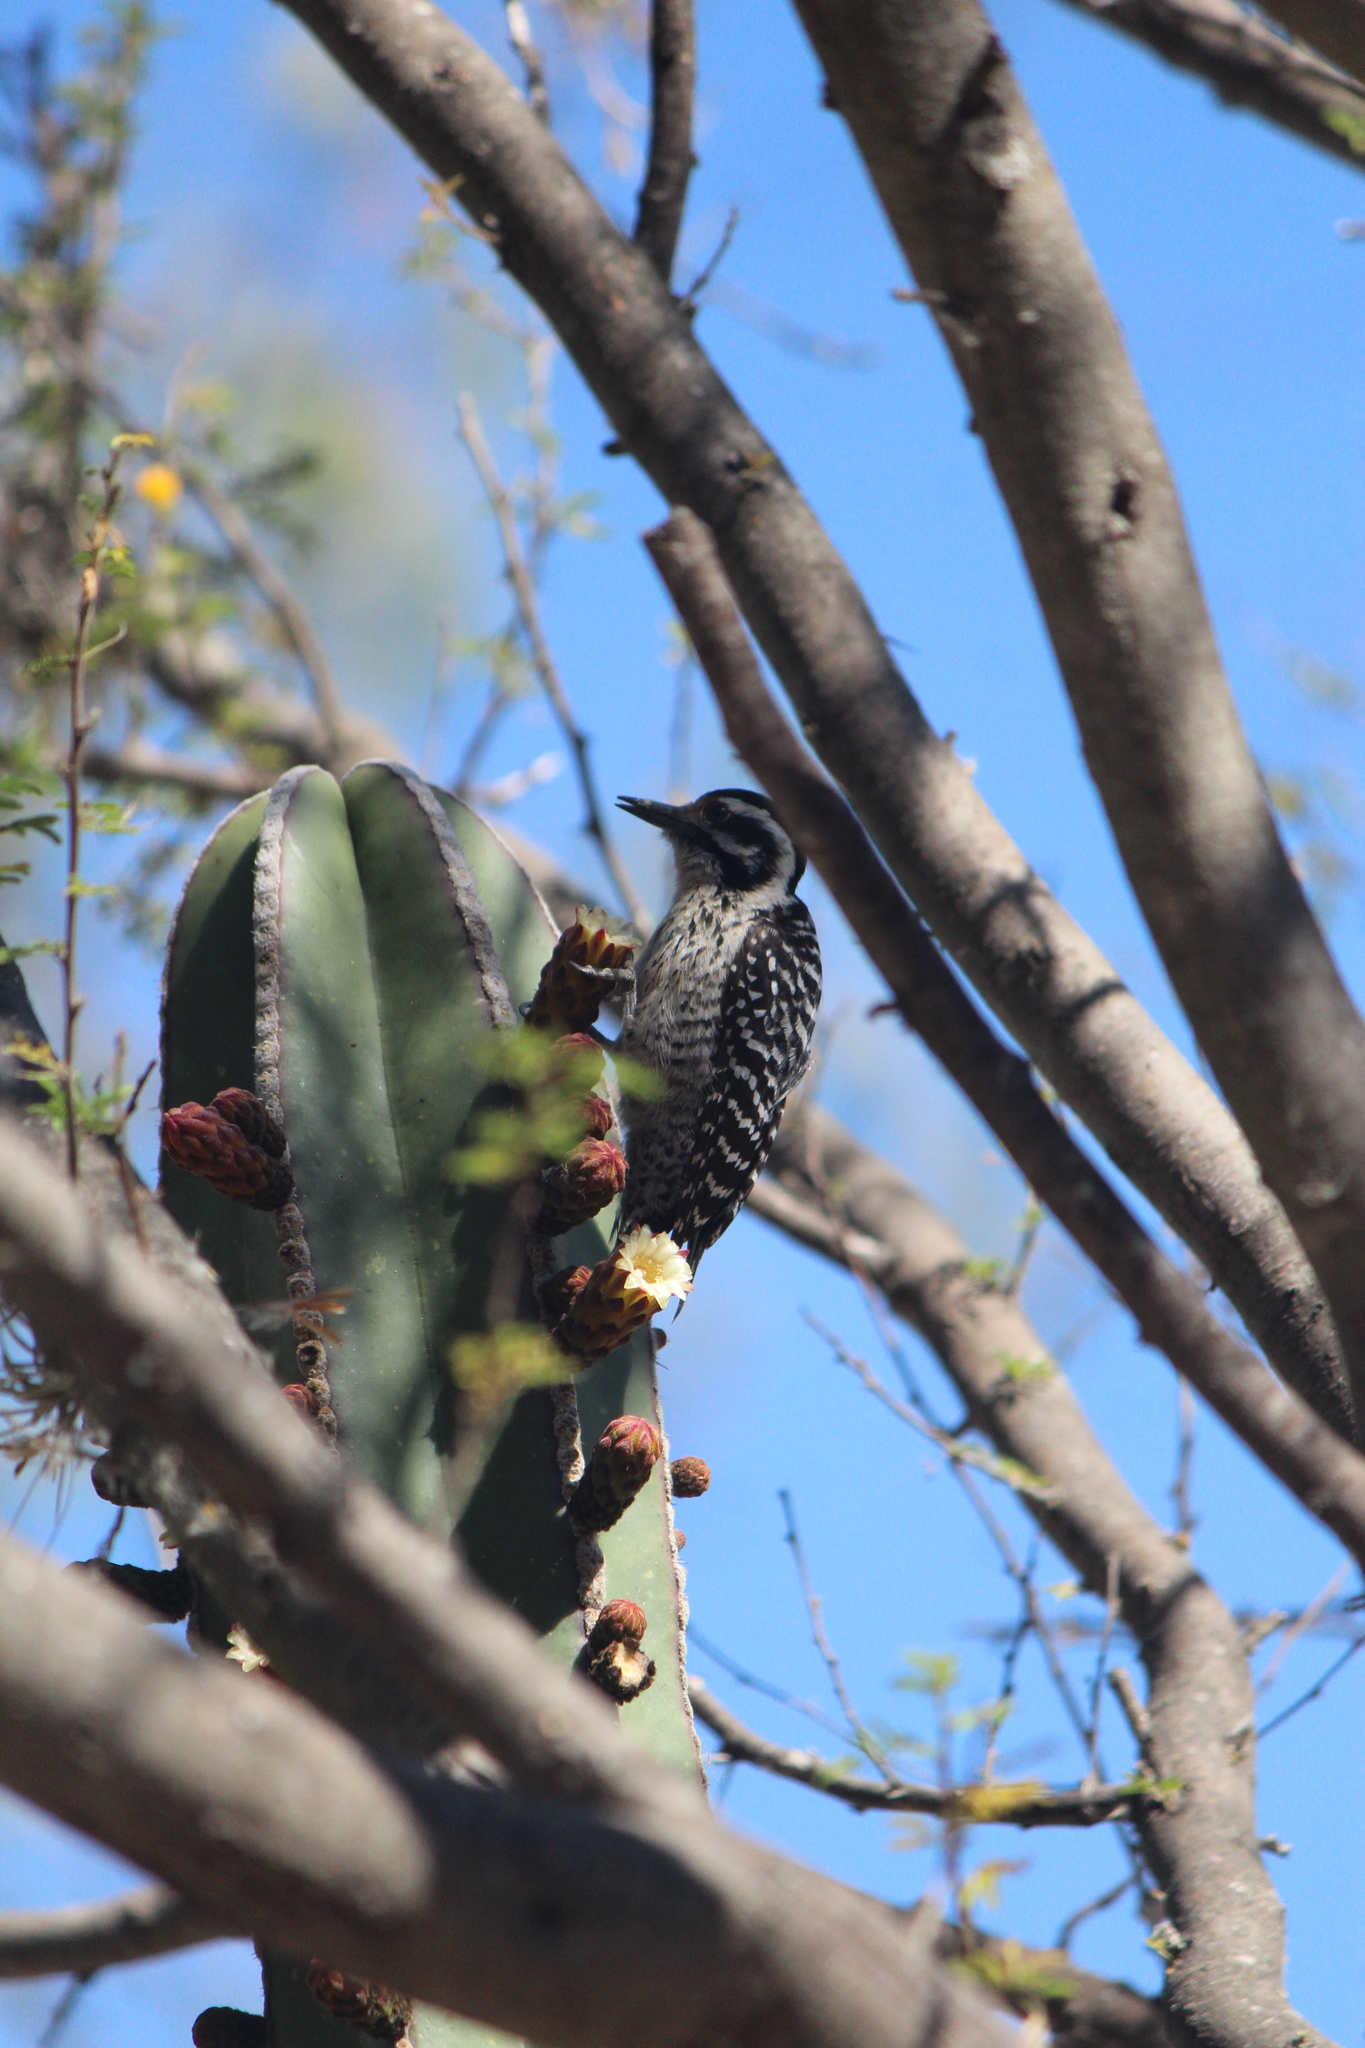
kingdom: Animalia
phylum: Chordata
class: Aves
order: Piciformes
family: Picidae
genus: Dryobates
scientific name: Dryobates scalaris
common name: Ladder-backed woodpecker
